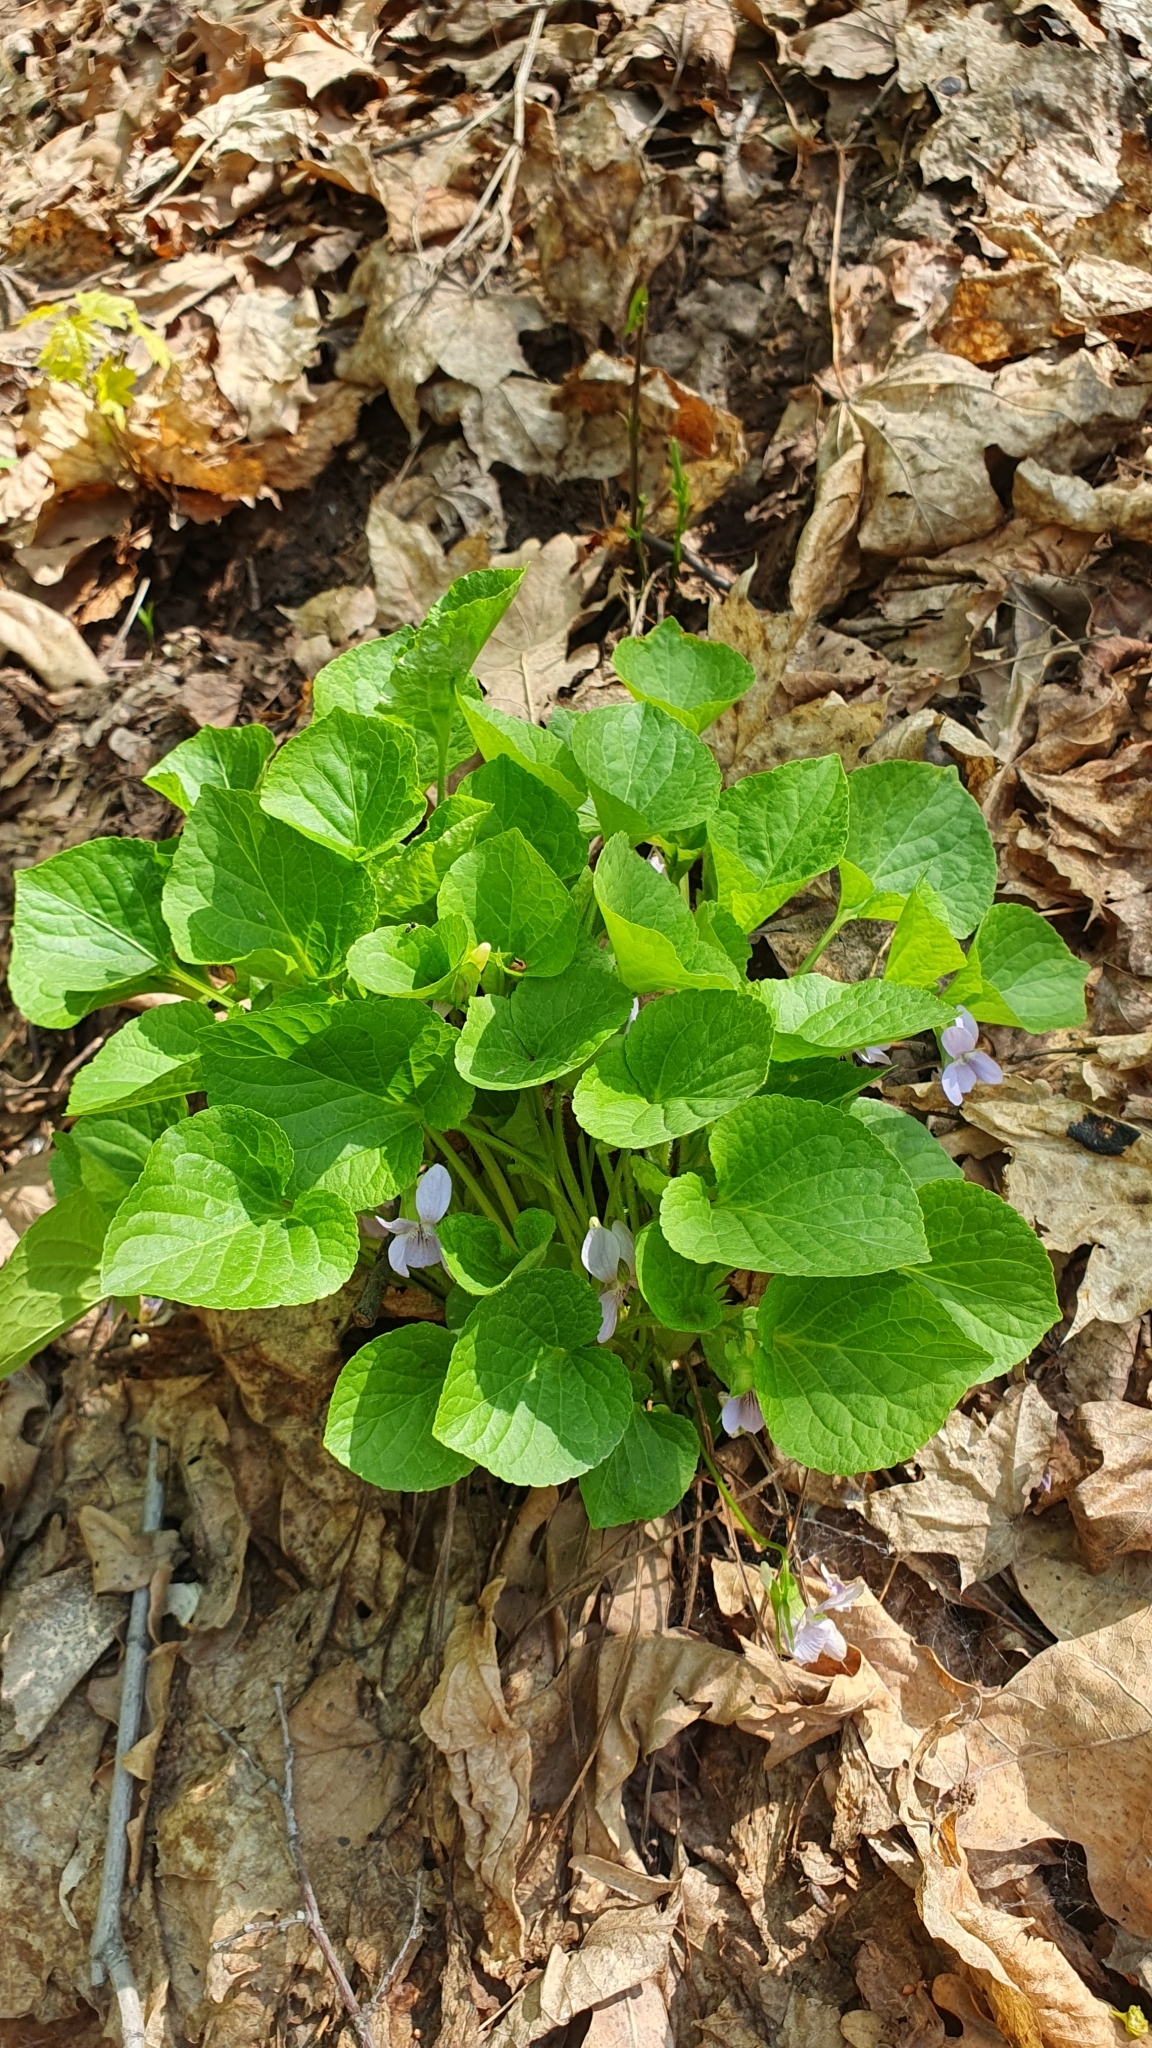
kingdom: Plantae
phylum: Tracheophyta
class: Magnoliopsida
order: Malpighiales
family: Violaceae
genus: Viola
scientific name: Viola mirabilis
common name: Wonder violet
